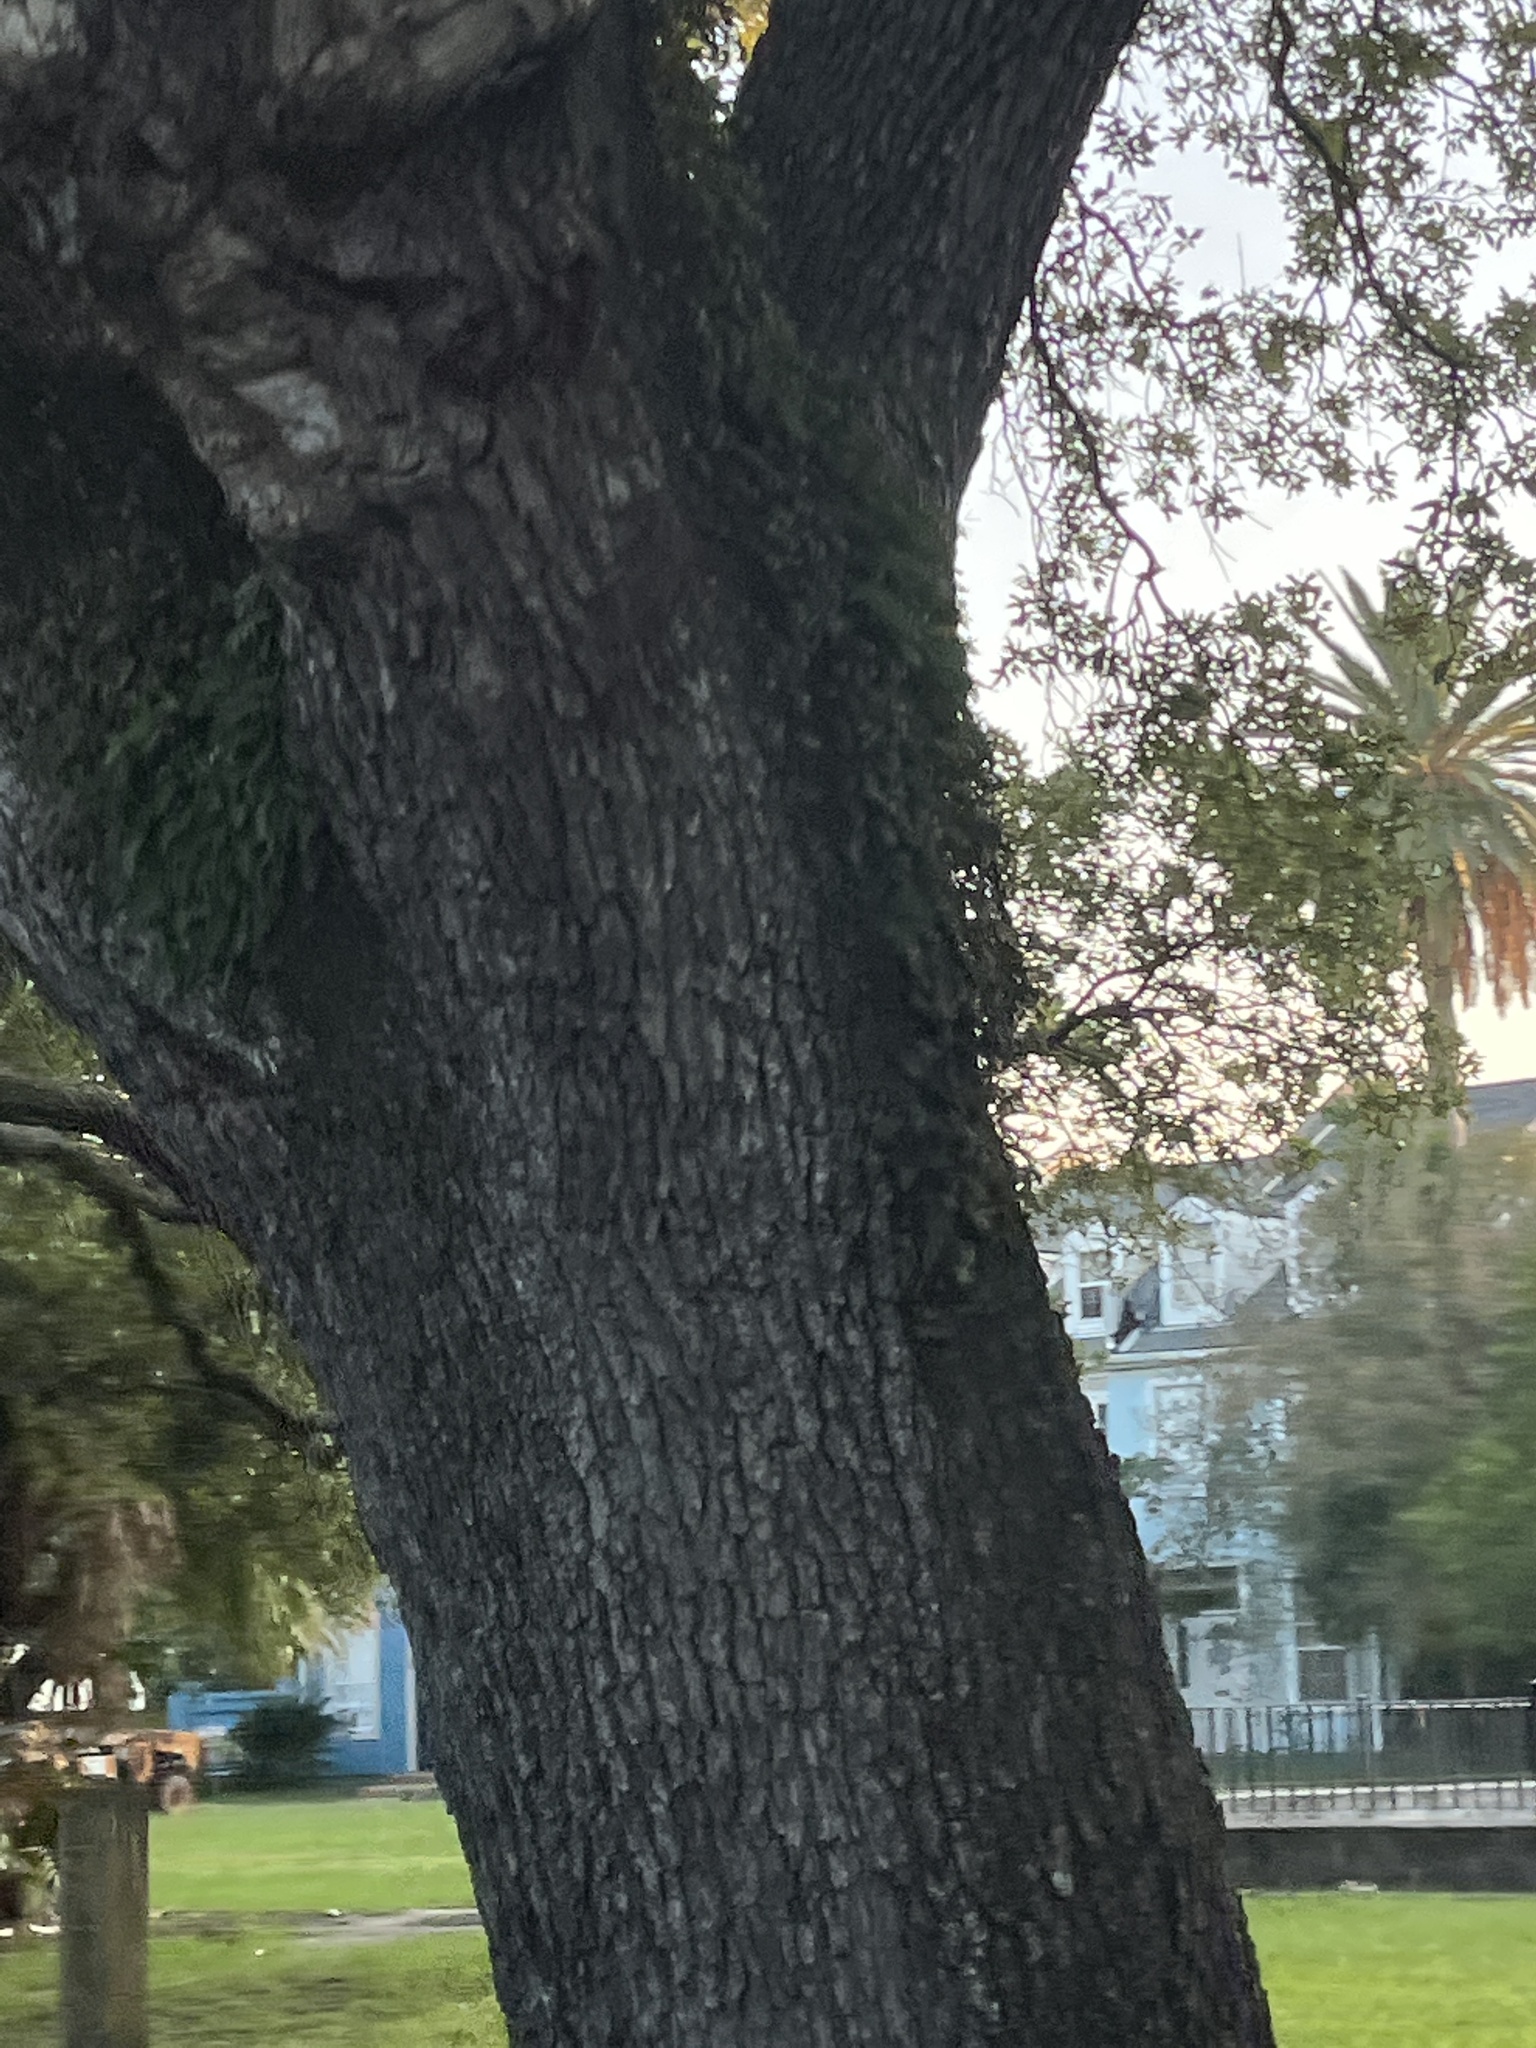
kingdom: Plantae
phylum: Tracheophyta
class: Polypodiopsida
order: Polypodiales
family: Polypodiaceae
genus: Pleopeltis
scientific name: Pleopeltis michauxiana
